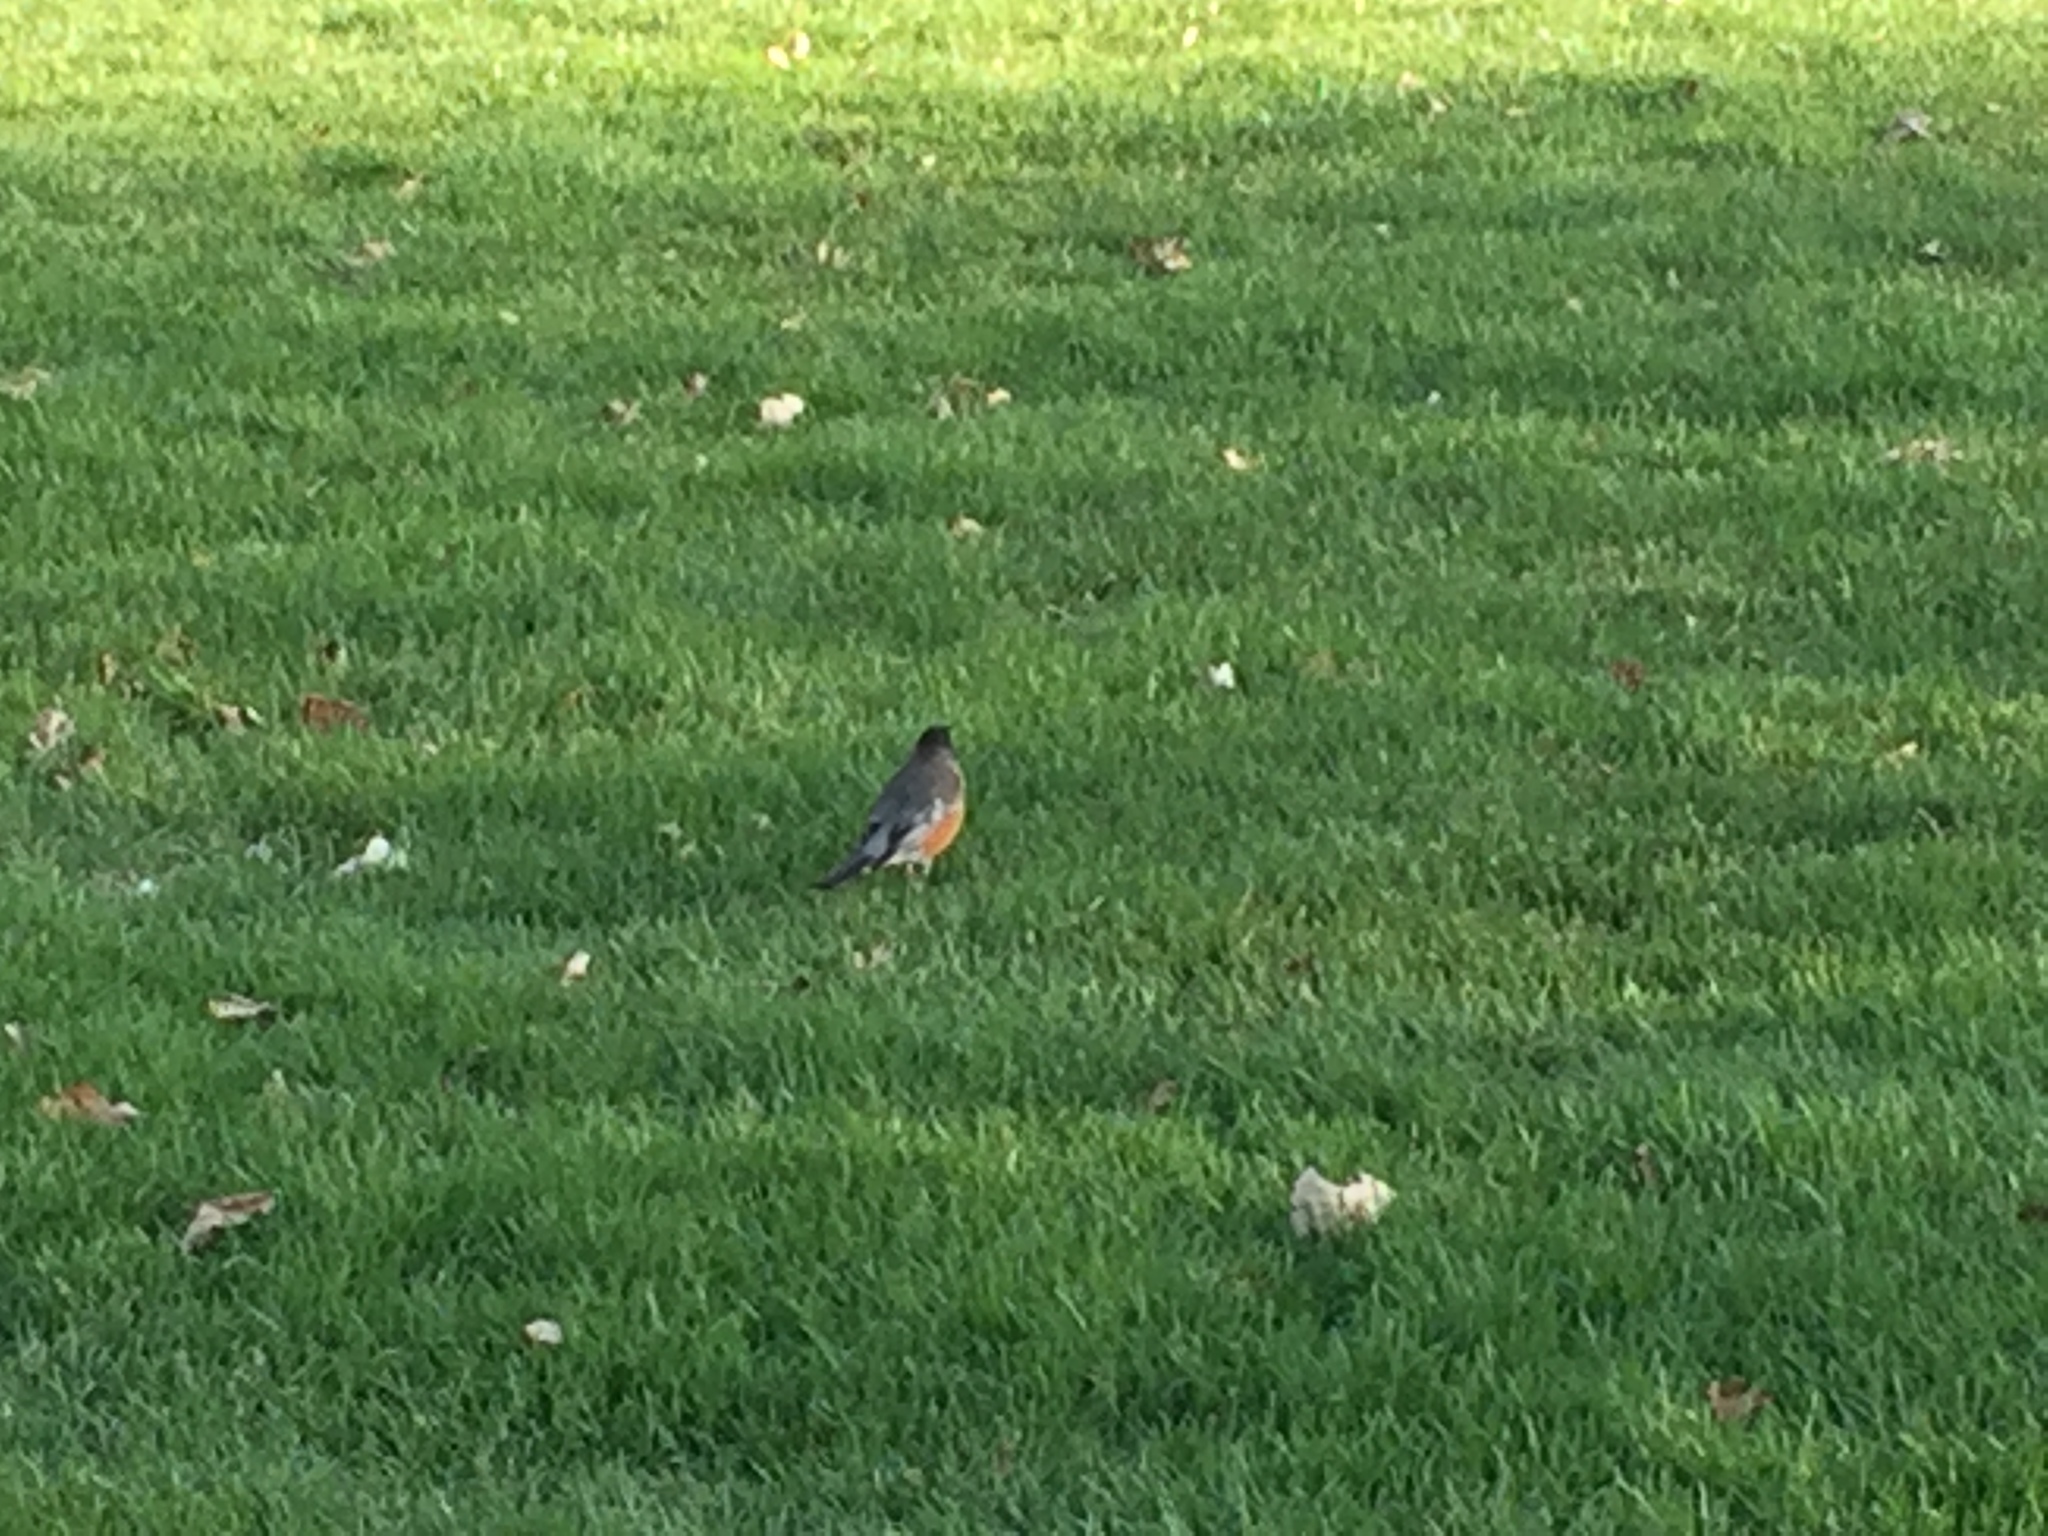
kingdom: Animalia
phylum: Chordata
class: Aves
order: Passeriformes
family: Turdidae
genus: Turdus
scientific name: Turdus migratorius
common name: American robin
